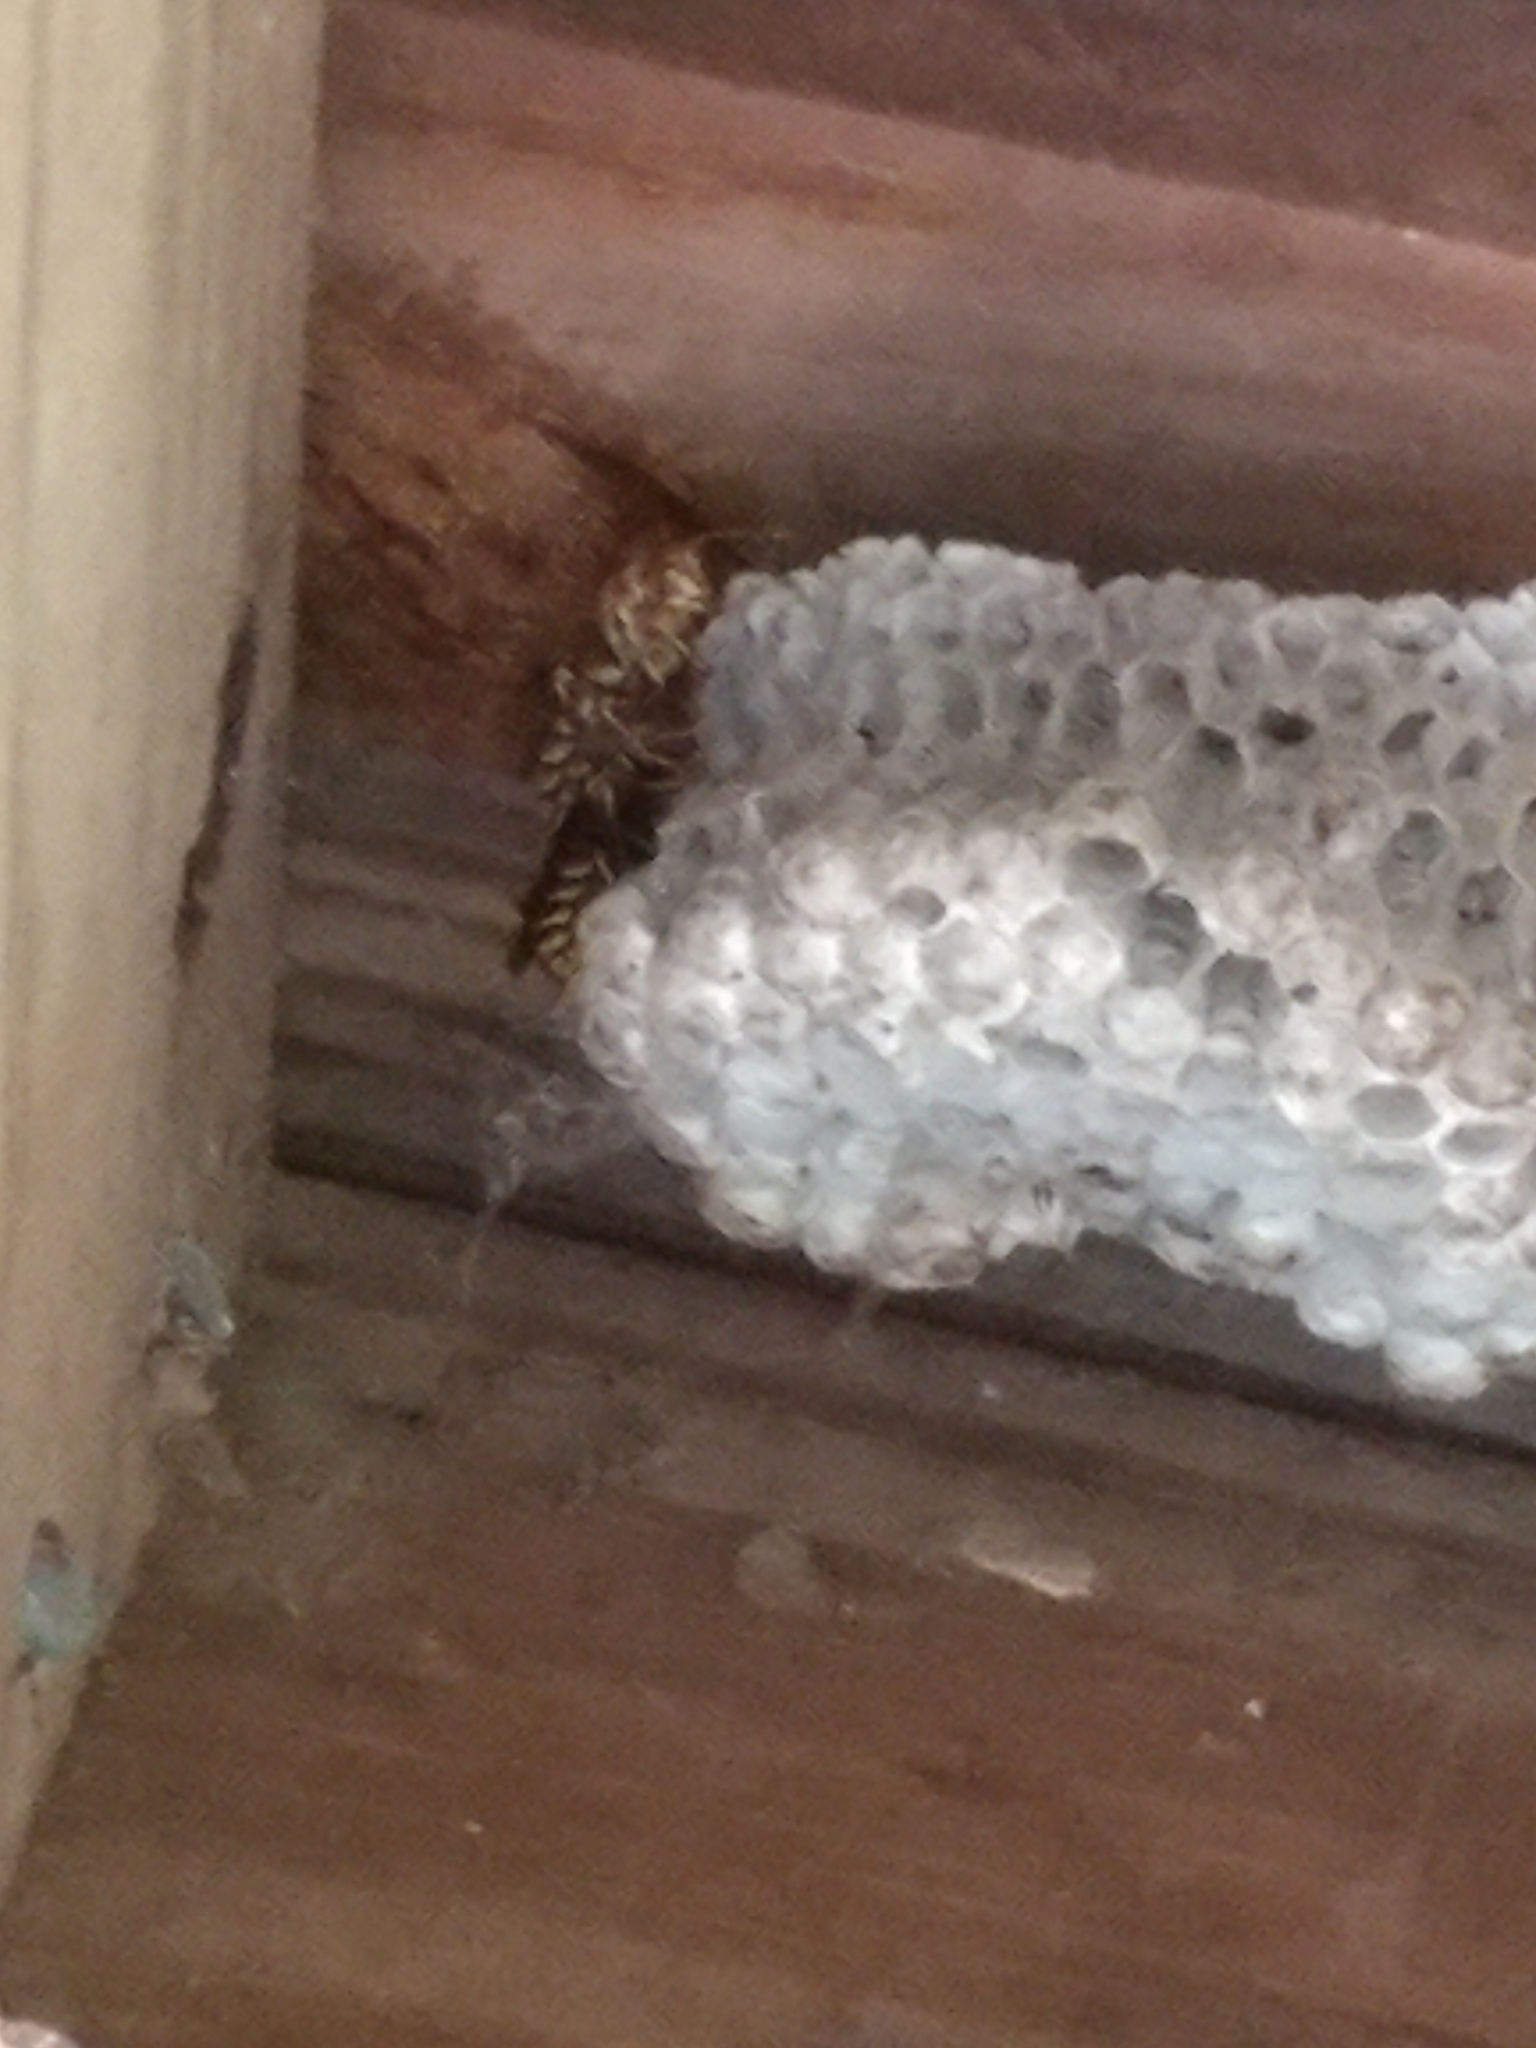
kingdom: Animalia
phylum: Arthropoda
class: Insecta
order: Hymenoptera
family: Eumenidae
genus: Polistes
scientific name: Polistes exclamans
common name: Paper wasp
